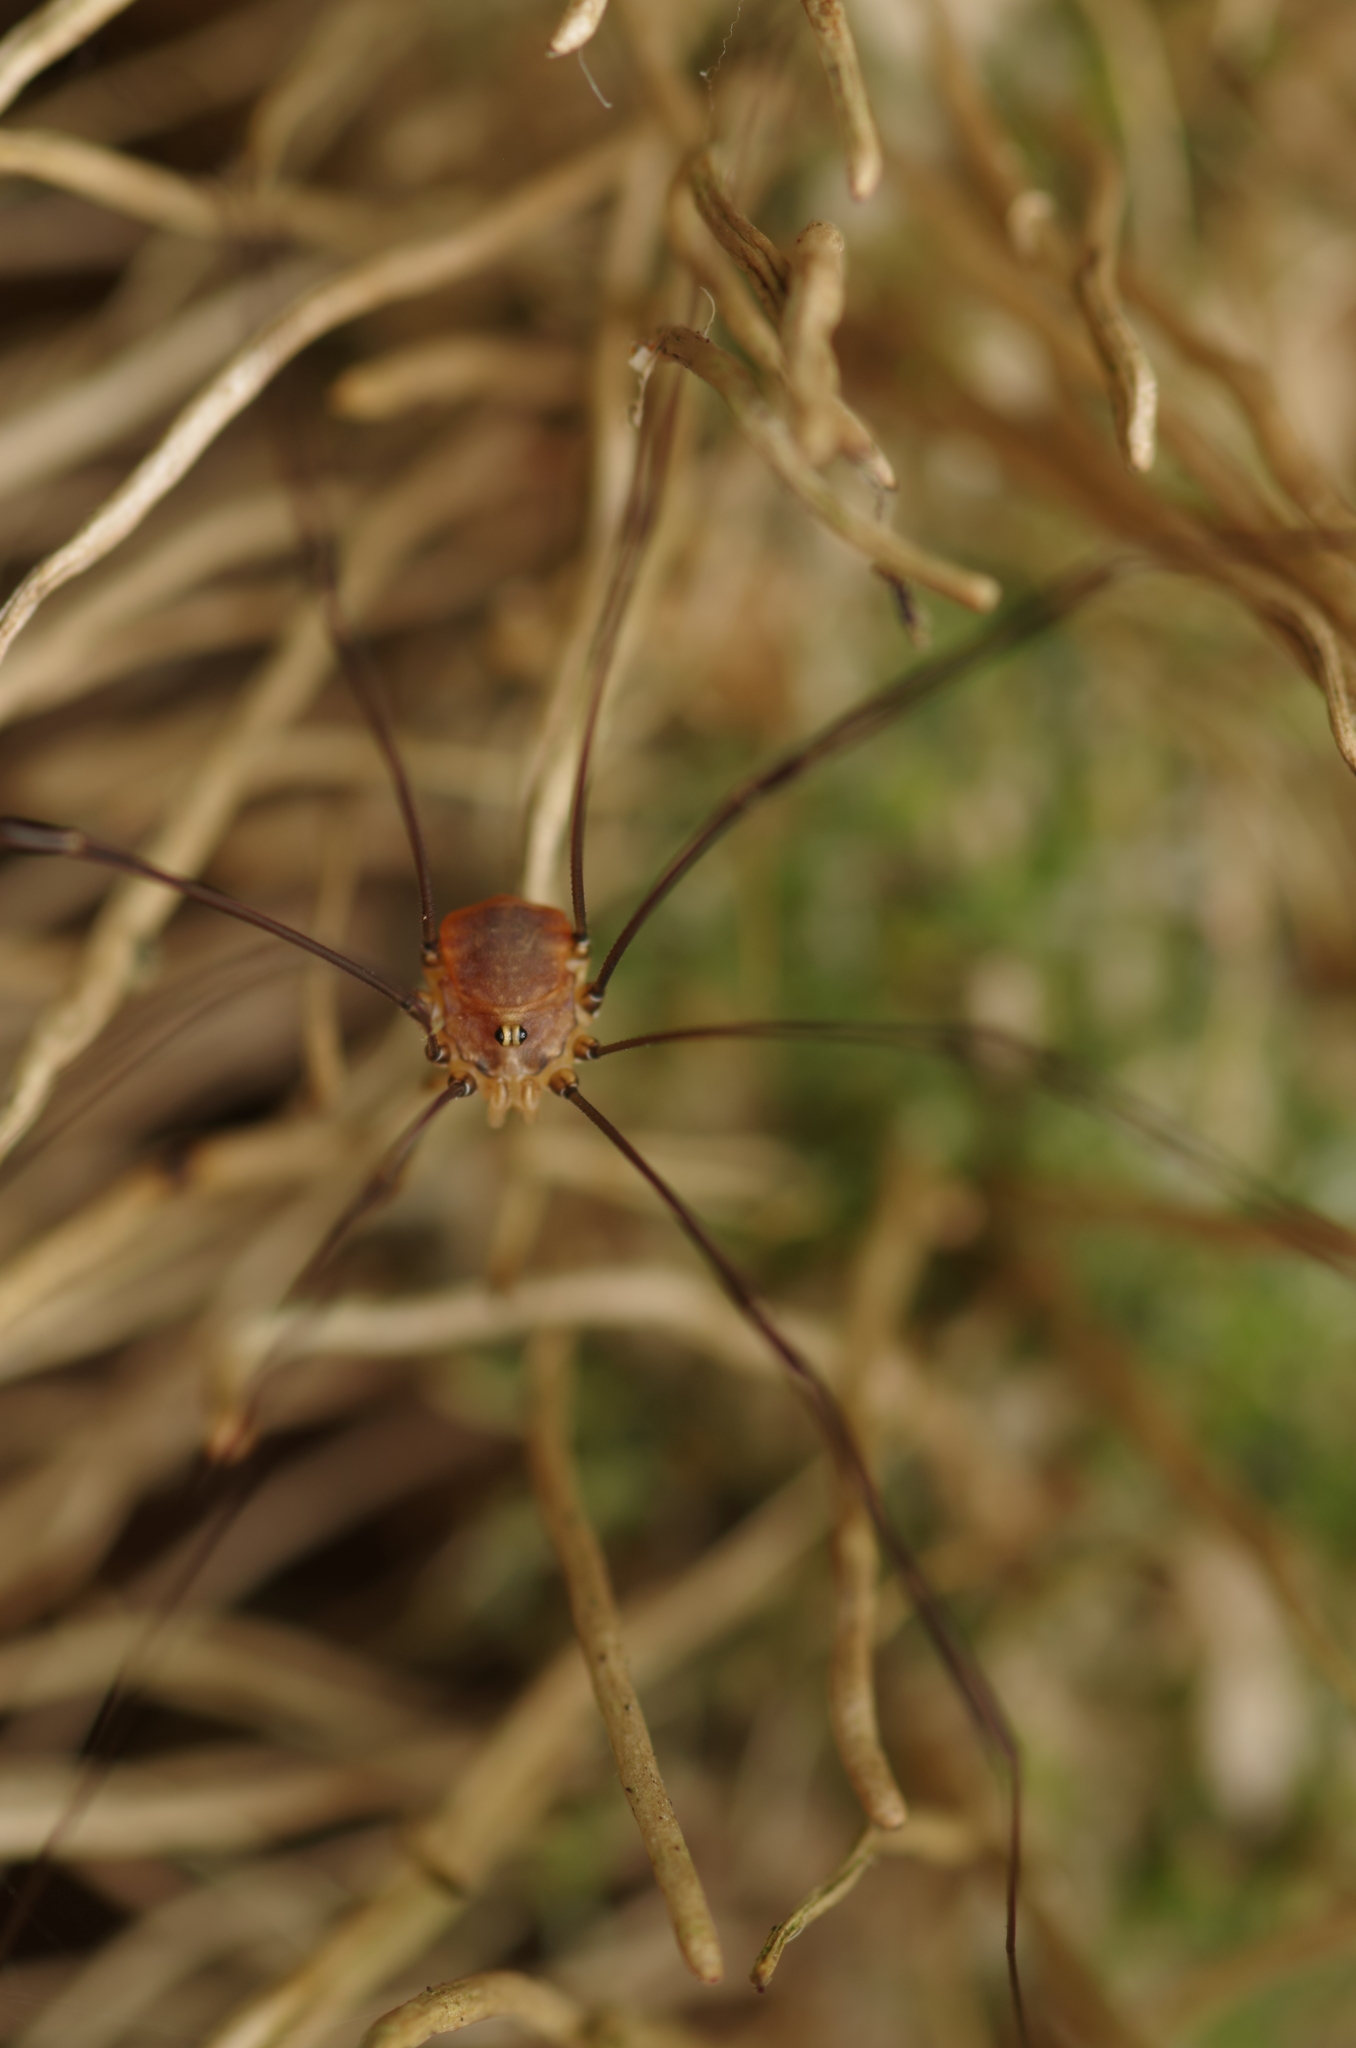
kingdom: Animalia
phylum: Arthropoda
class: Arachnida
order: Opiliones
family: Sclerosomatidae
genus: Leiobunum
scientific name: Leiobunum blackwalli
